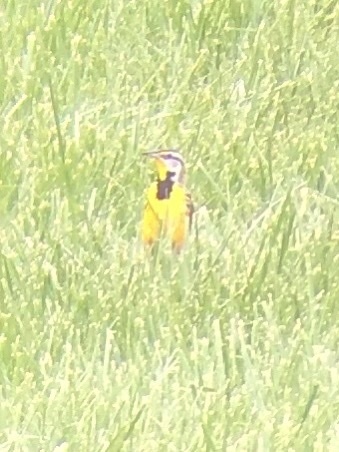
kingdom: Animalia
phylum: Chordata
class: Aves
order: Passeriformes
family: Icteridae
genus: Sturnella
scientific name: Sturnella magna
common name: Eastern meadowlark
